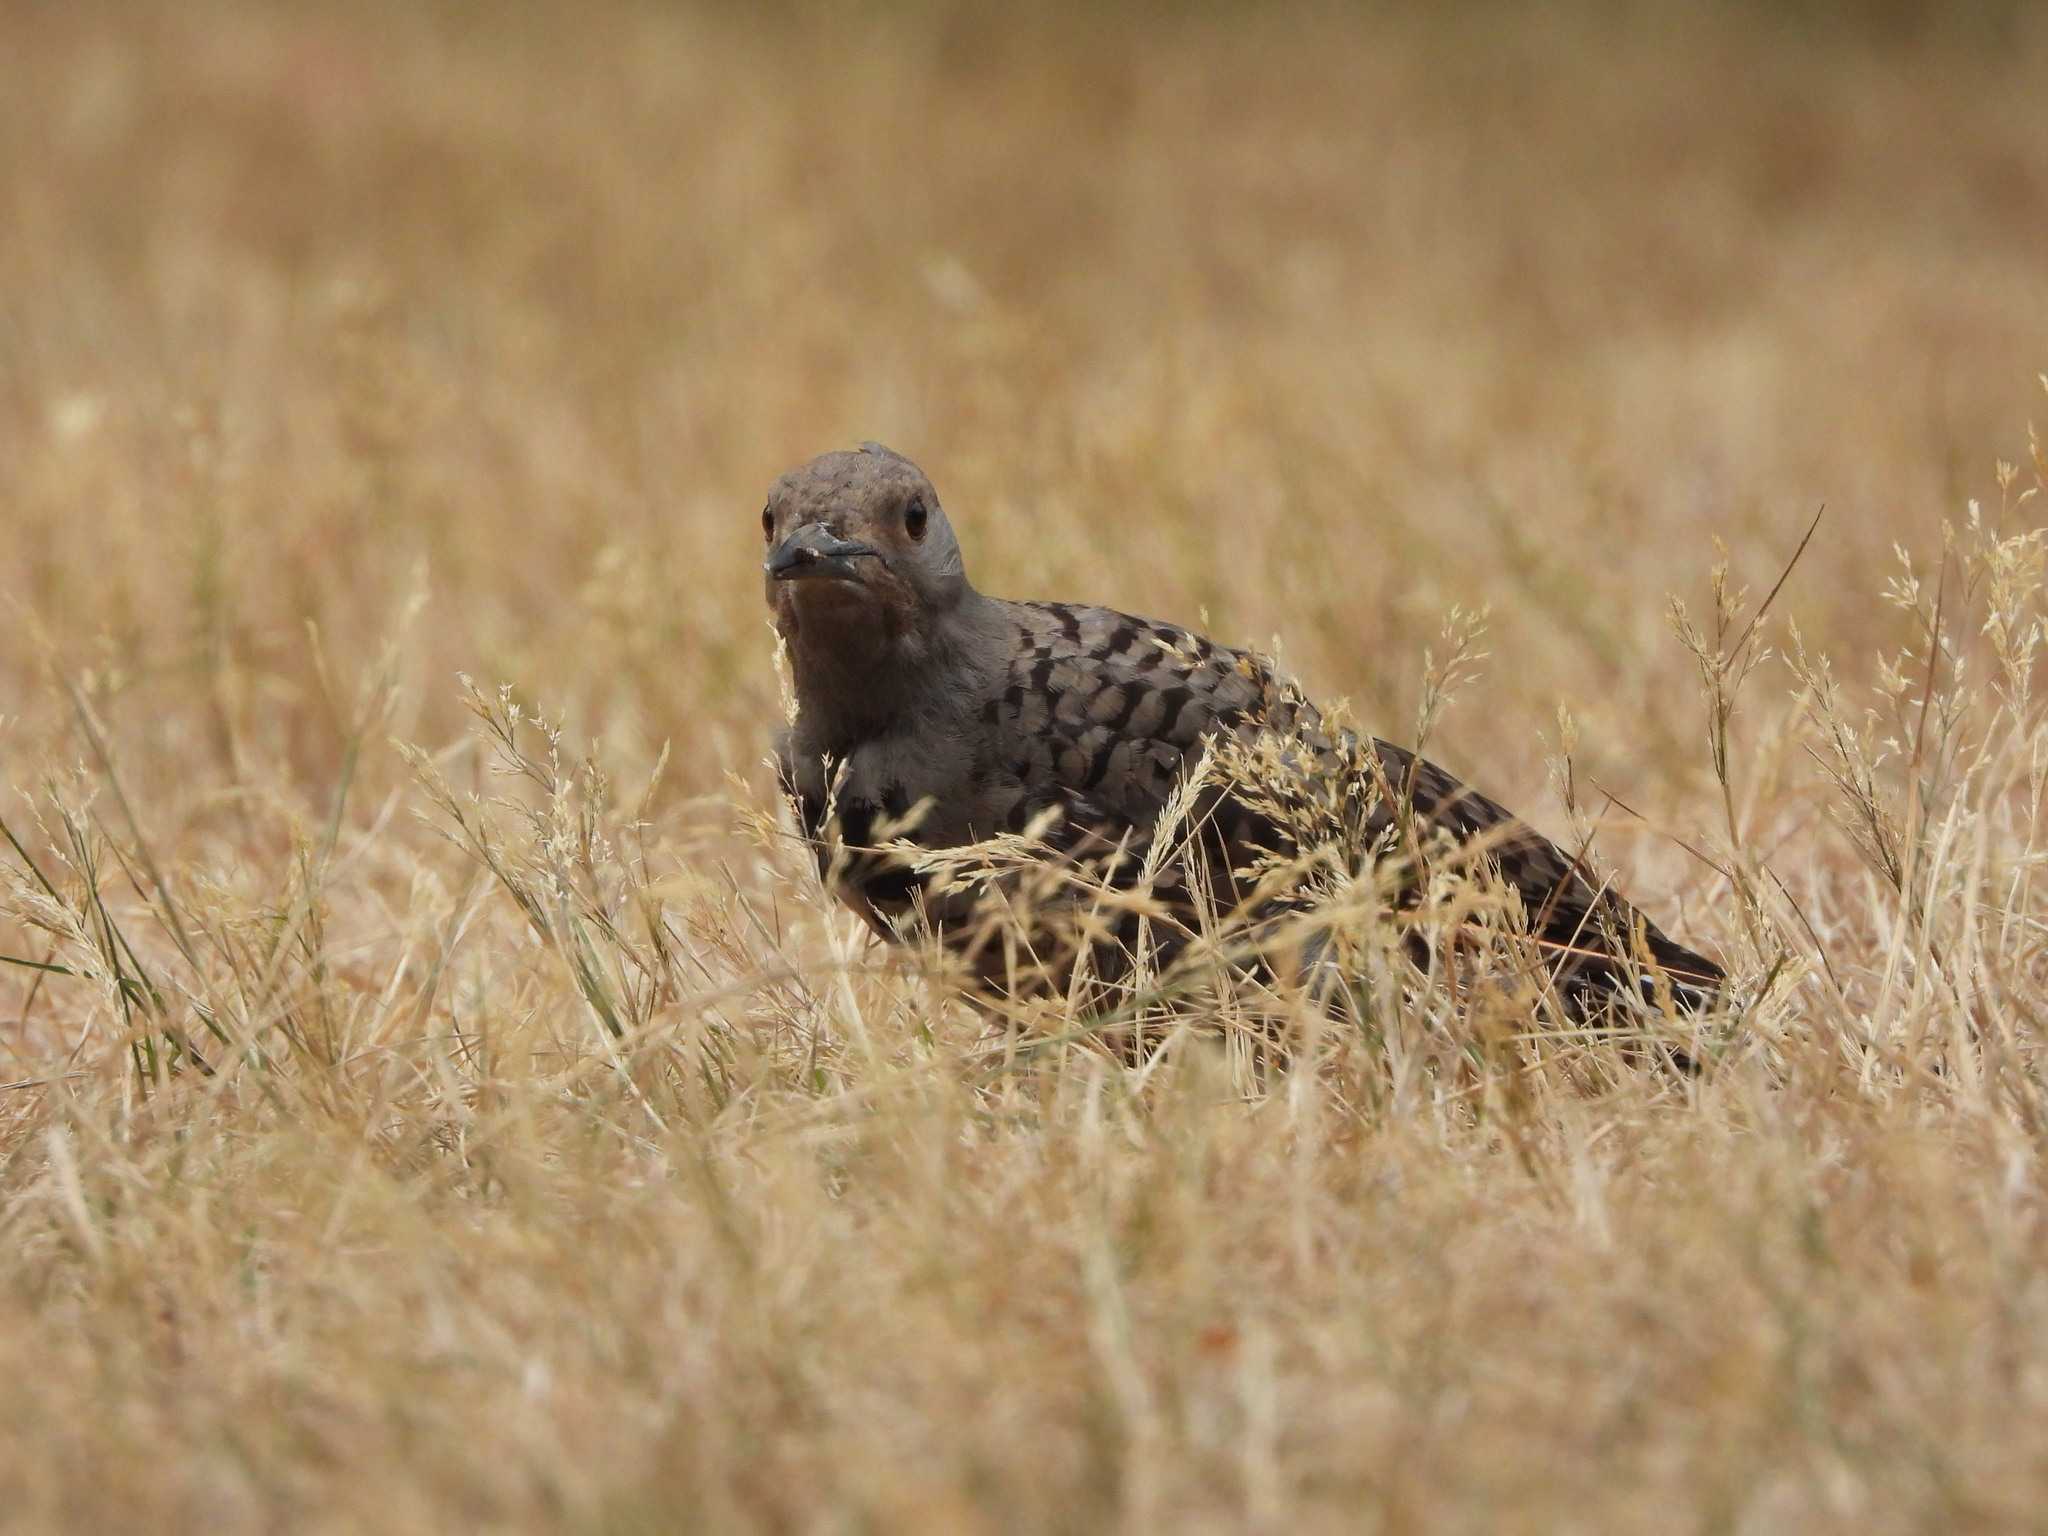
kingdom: Animalia
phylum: Chordata
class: Aves
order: Piciformes
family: Picidae
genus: Colaptes
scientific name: Colaptes auratus
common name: Northern flicker
